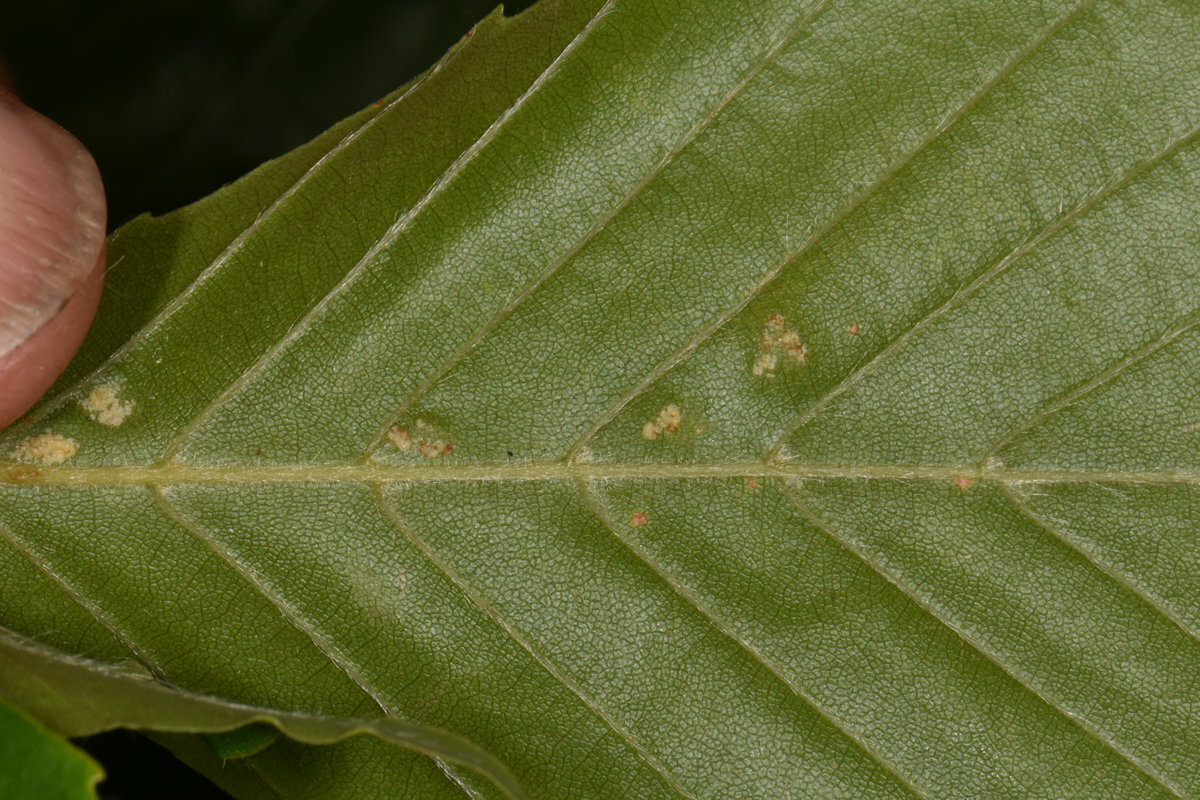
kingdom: Animalia
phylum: Arthropoda
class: Arachnida
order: Trombidiformes
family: Eriophyidae
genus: Acalitus
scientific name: Acalitus
